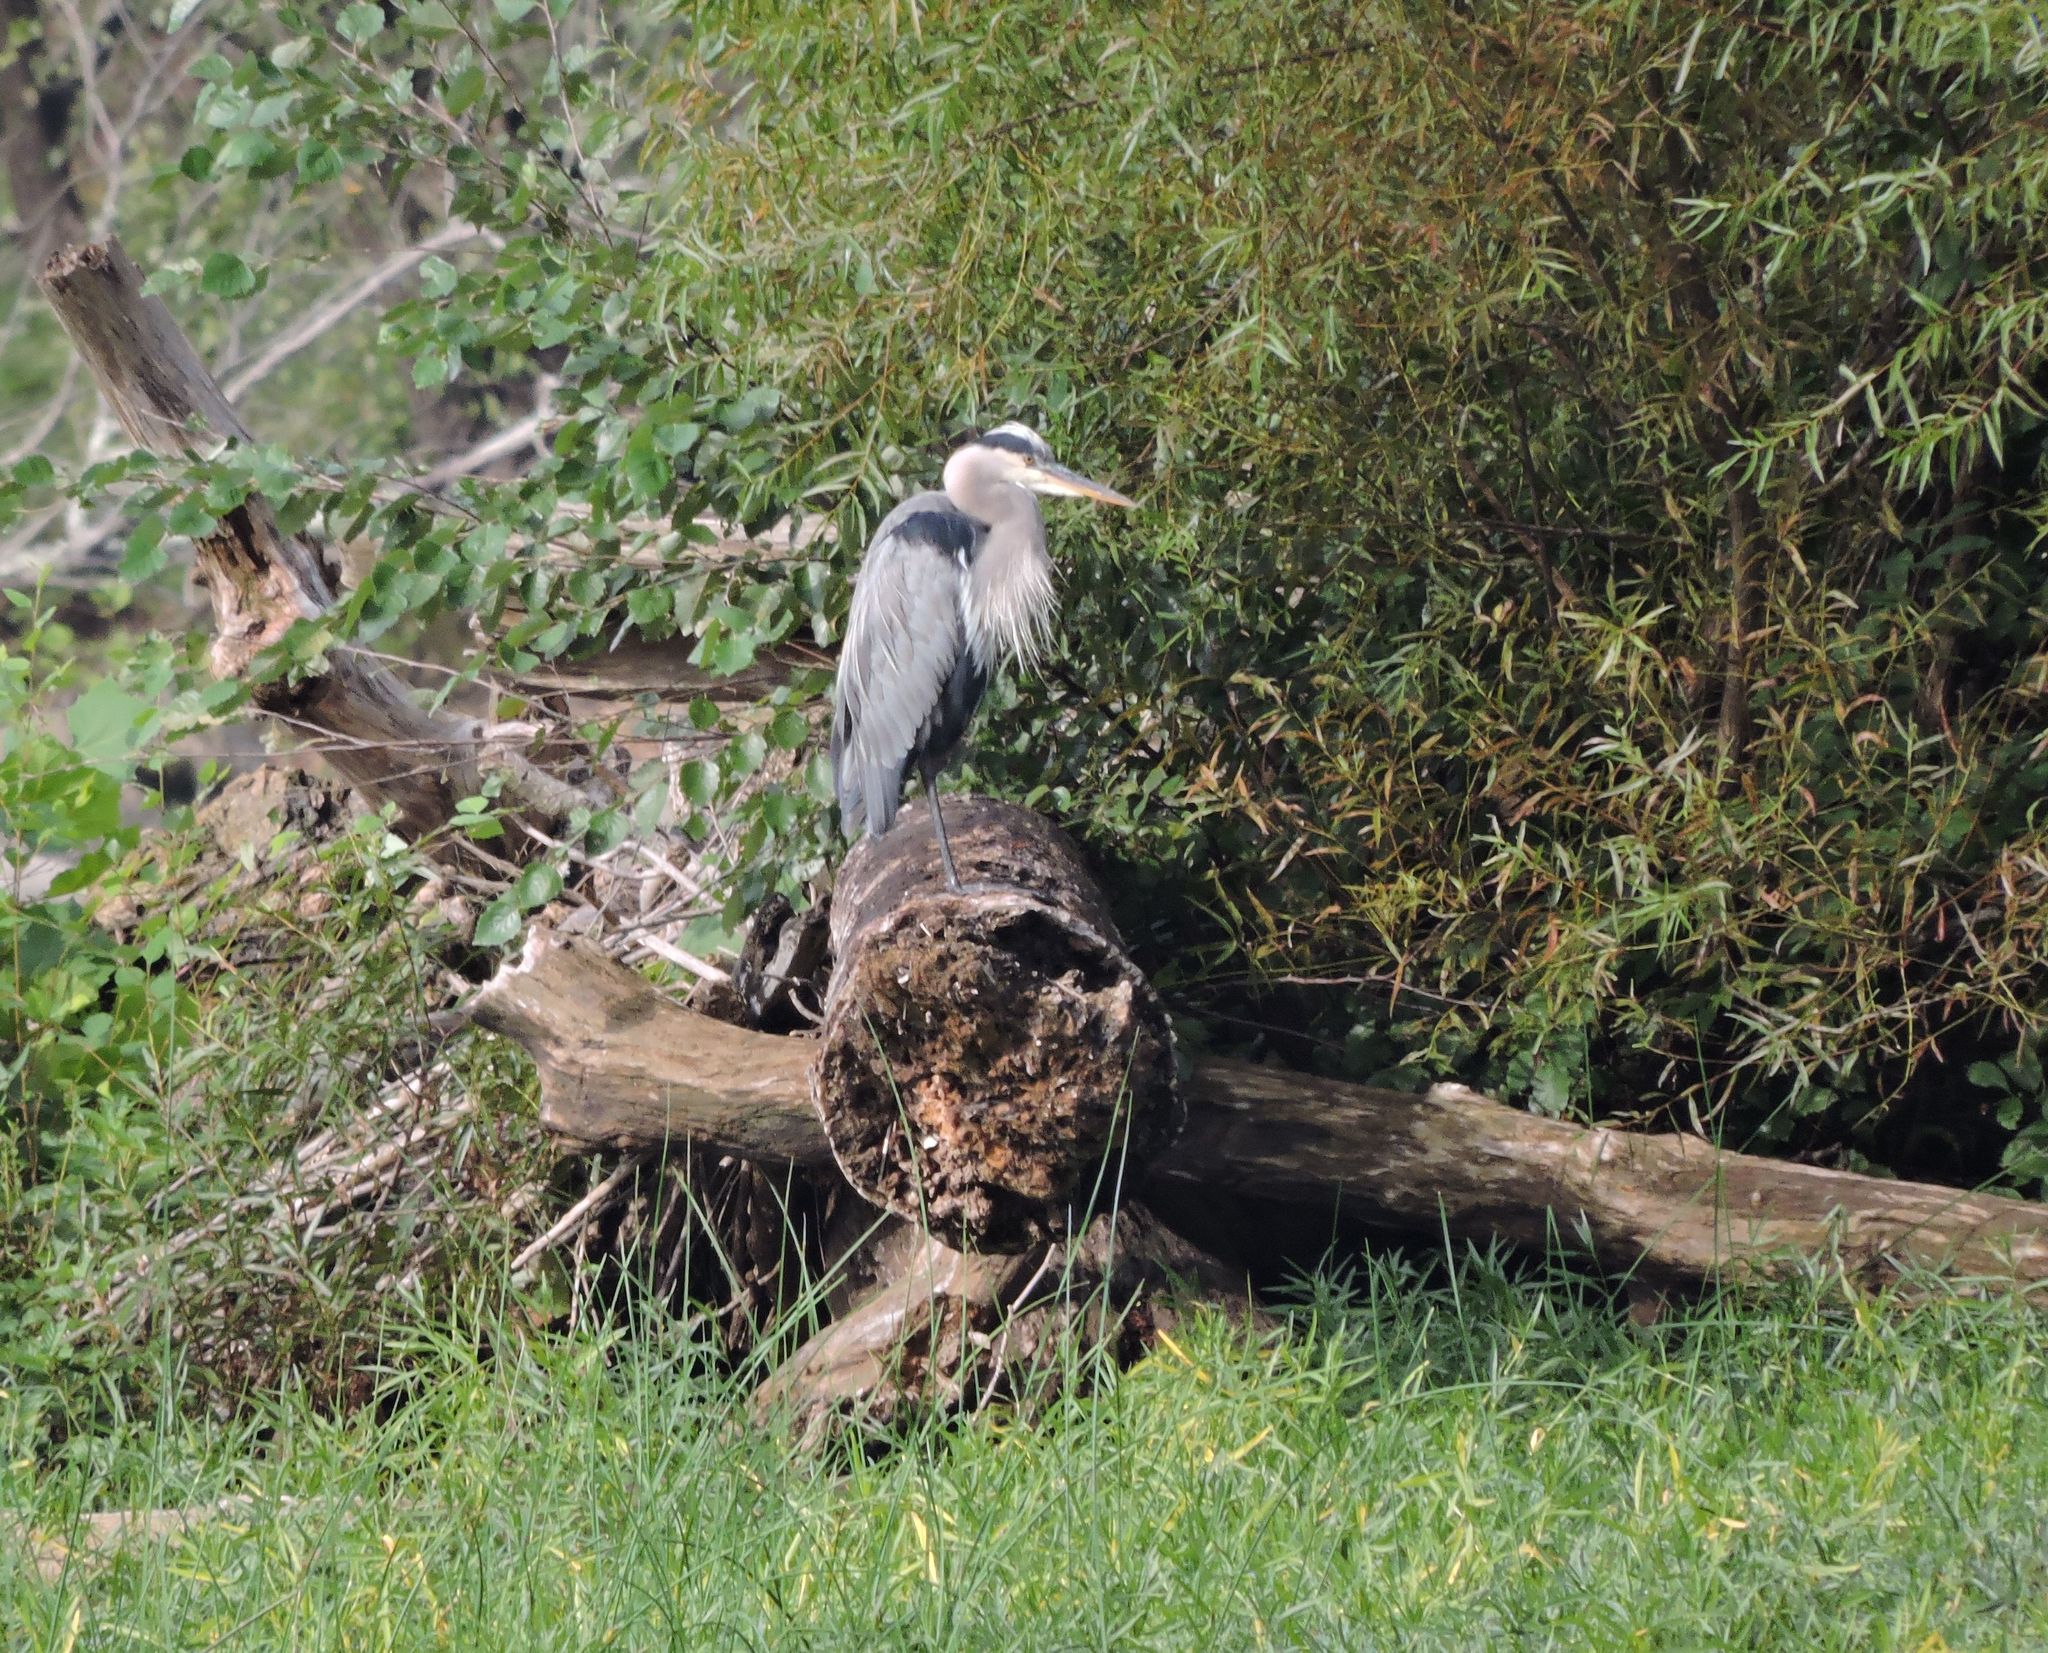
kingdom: Animalia
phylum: Chordata
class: Aves
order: Pelecaniformes
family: Ardeidae
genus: Ardea
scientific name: Ardea herodias
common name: Great blue heron
